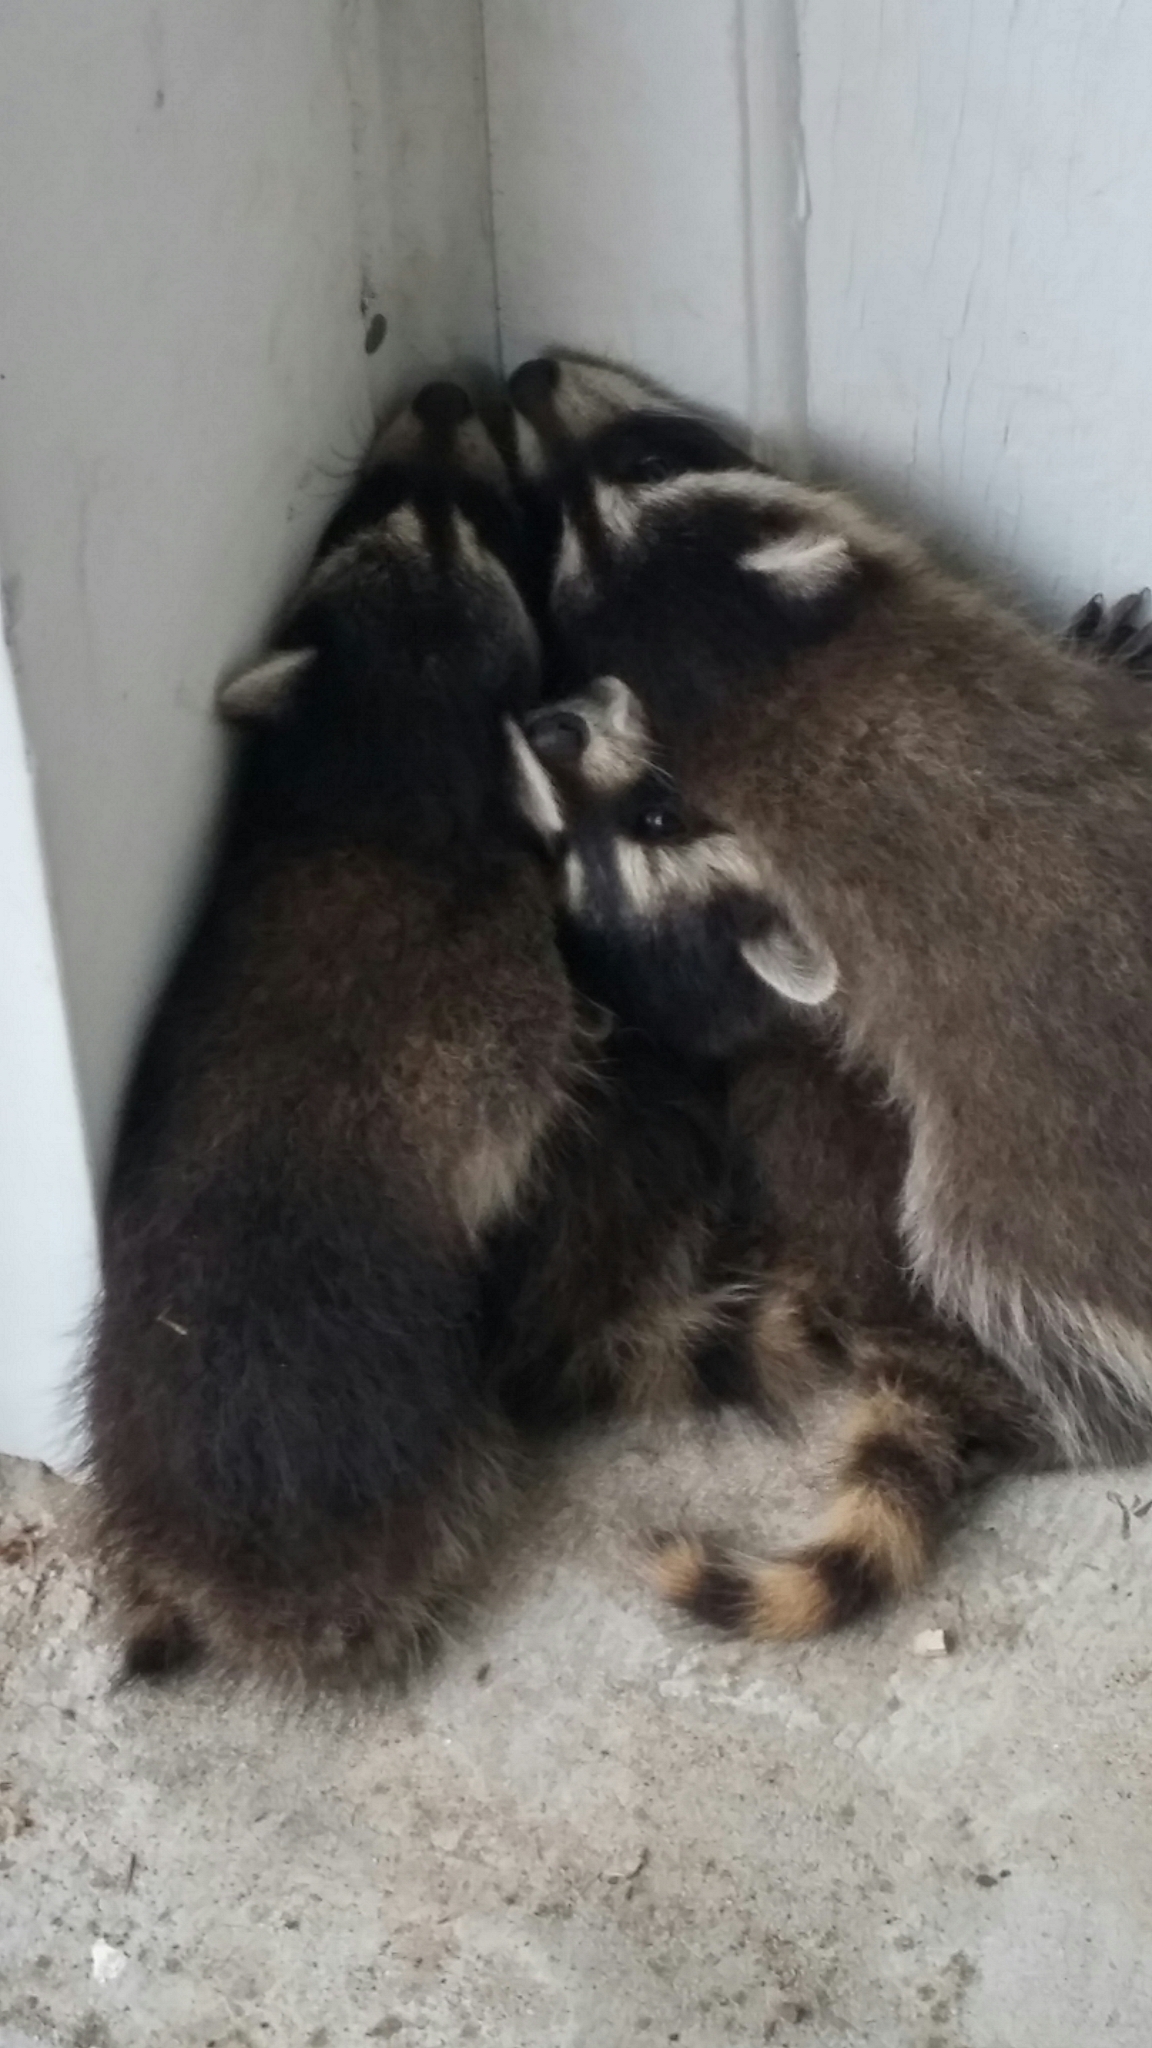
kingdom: Animalia
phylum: Chordata
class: Mammalia
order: Carnivora
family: Procyonidae
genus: Procyon
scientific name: Procyon lotor
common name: Raccoon
